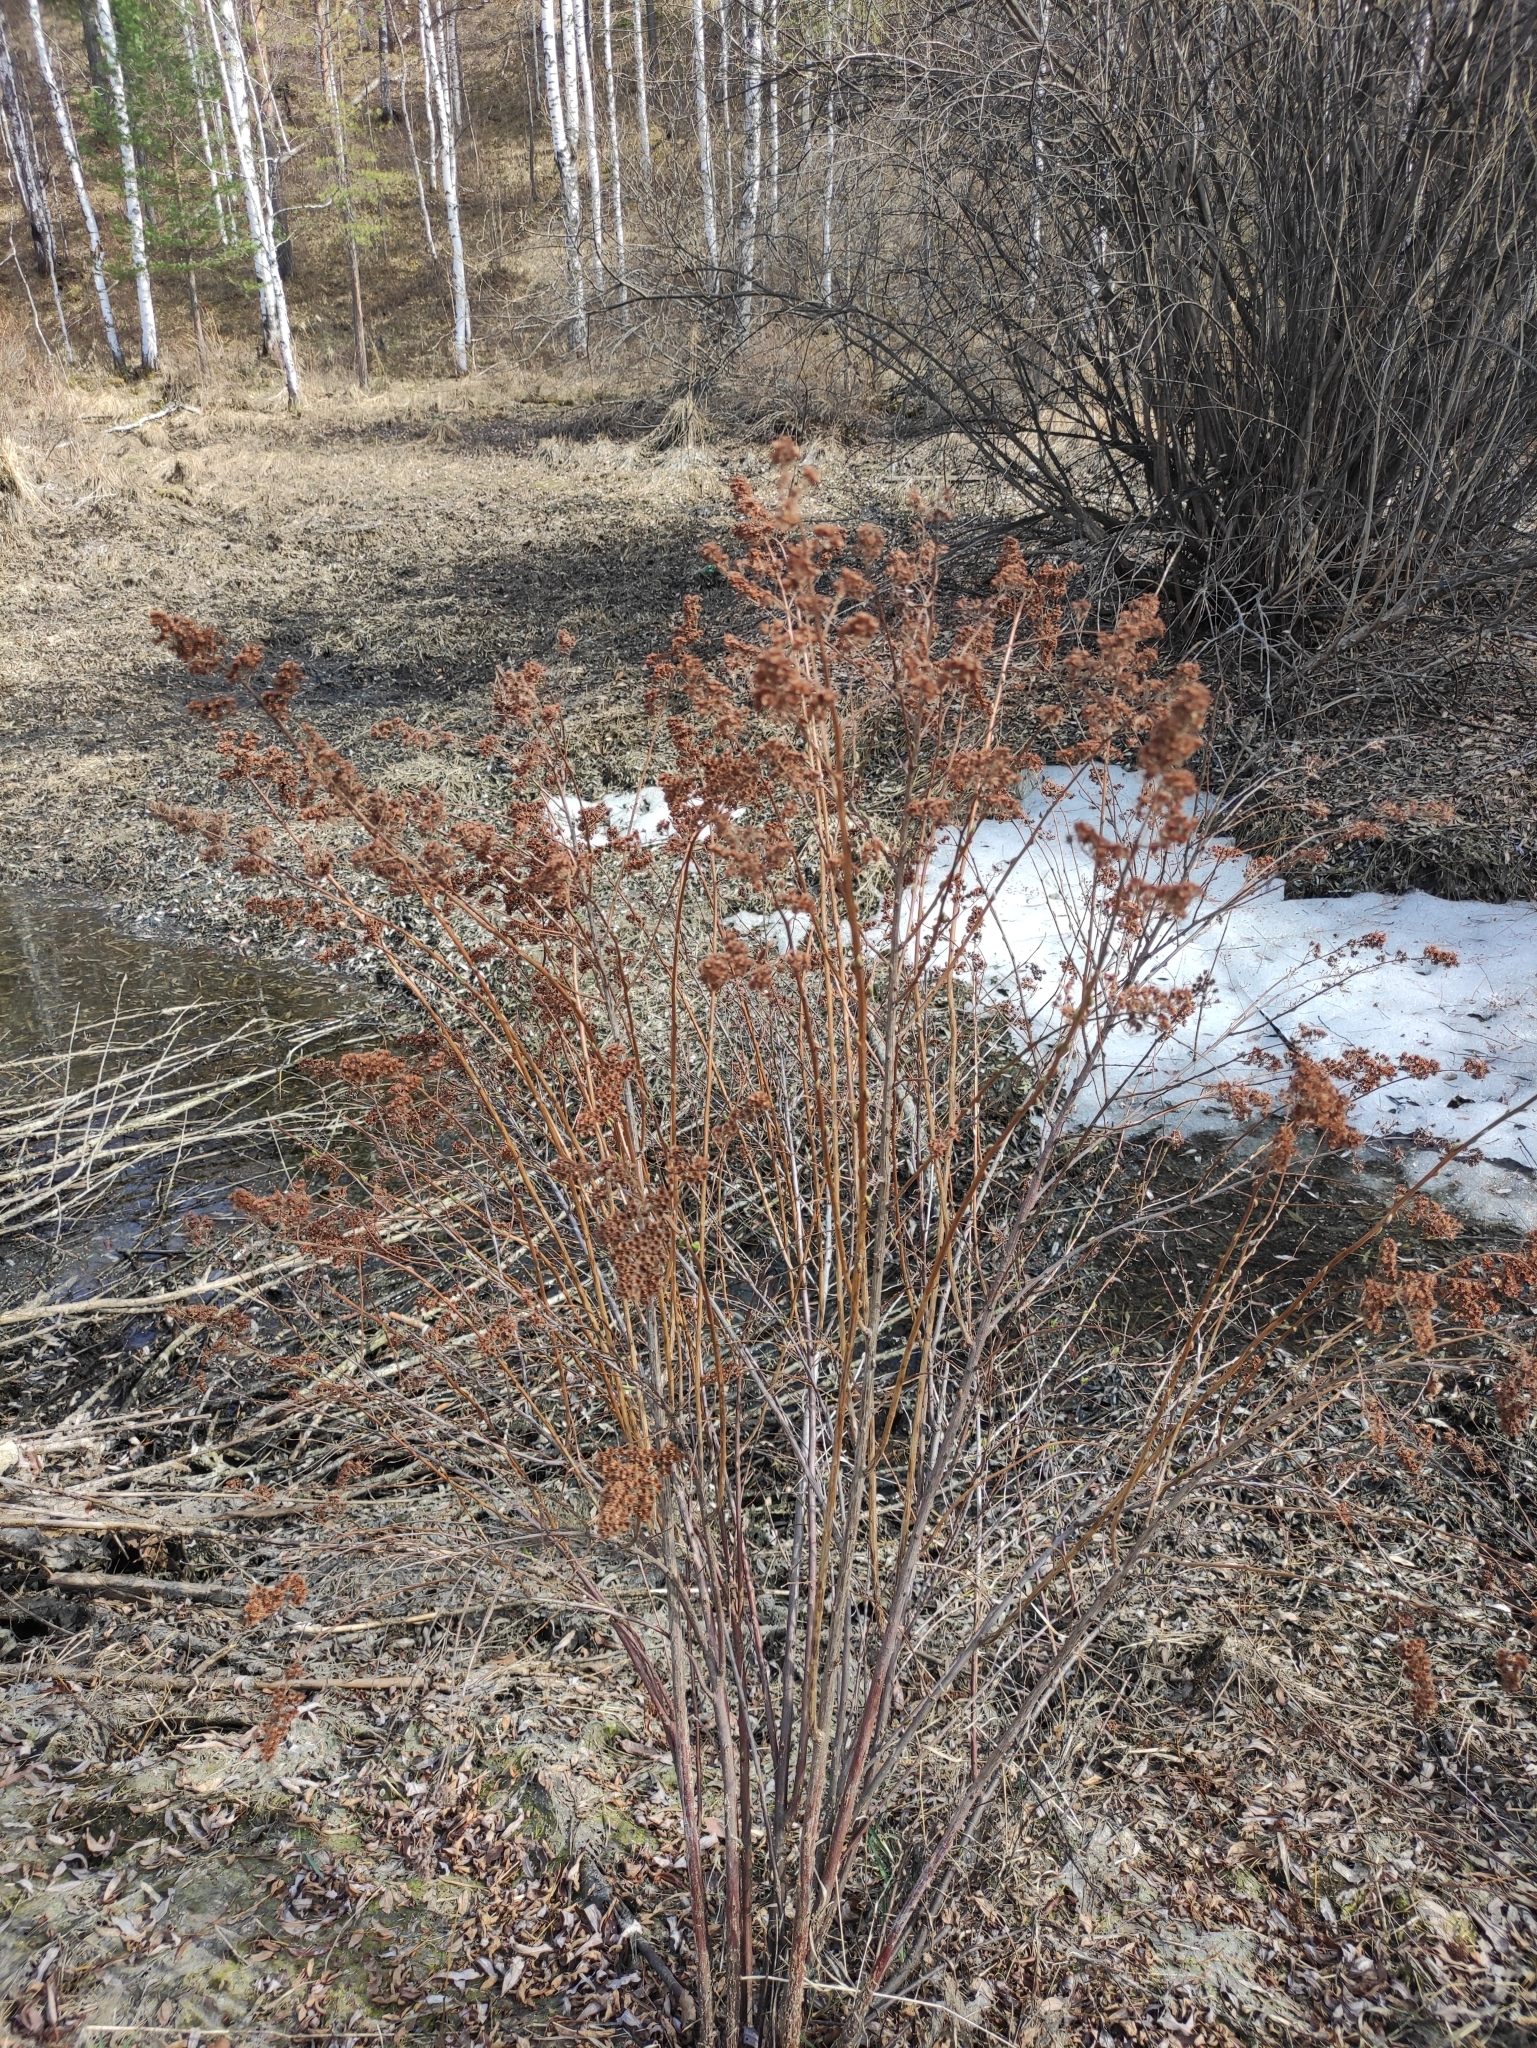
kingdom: Plantae
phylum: Tracheophyta
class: Magnoliopsida
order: Rosales
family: Rosaceae
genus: Spiraea
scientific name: Spiraea salicifolia
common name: Bridewort
